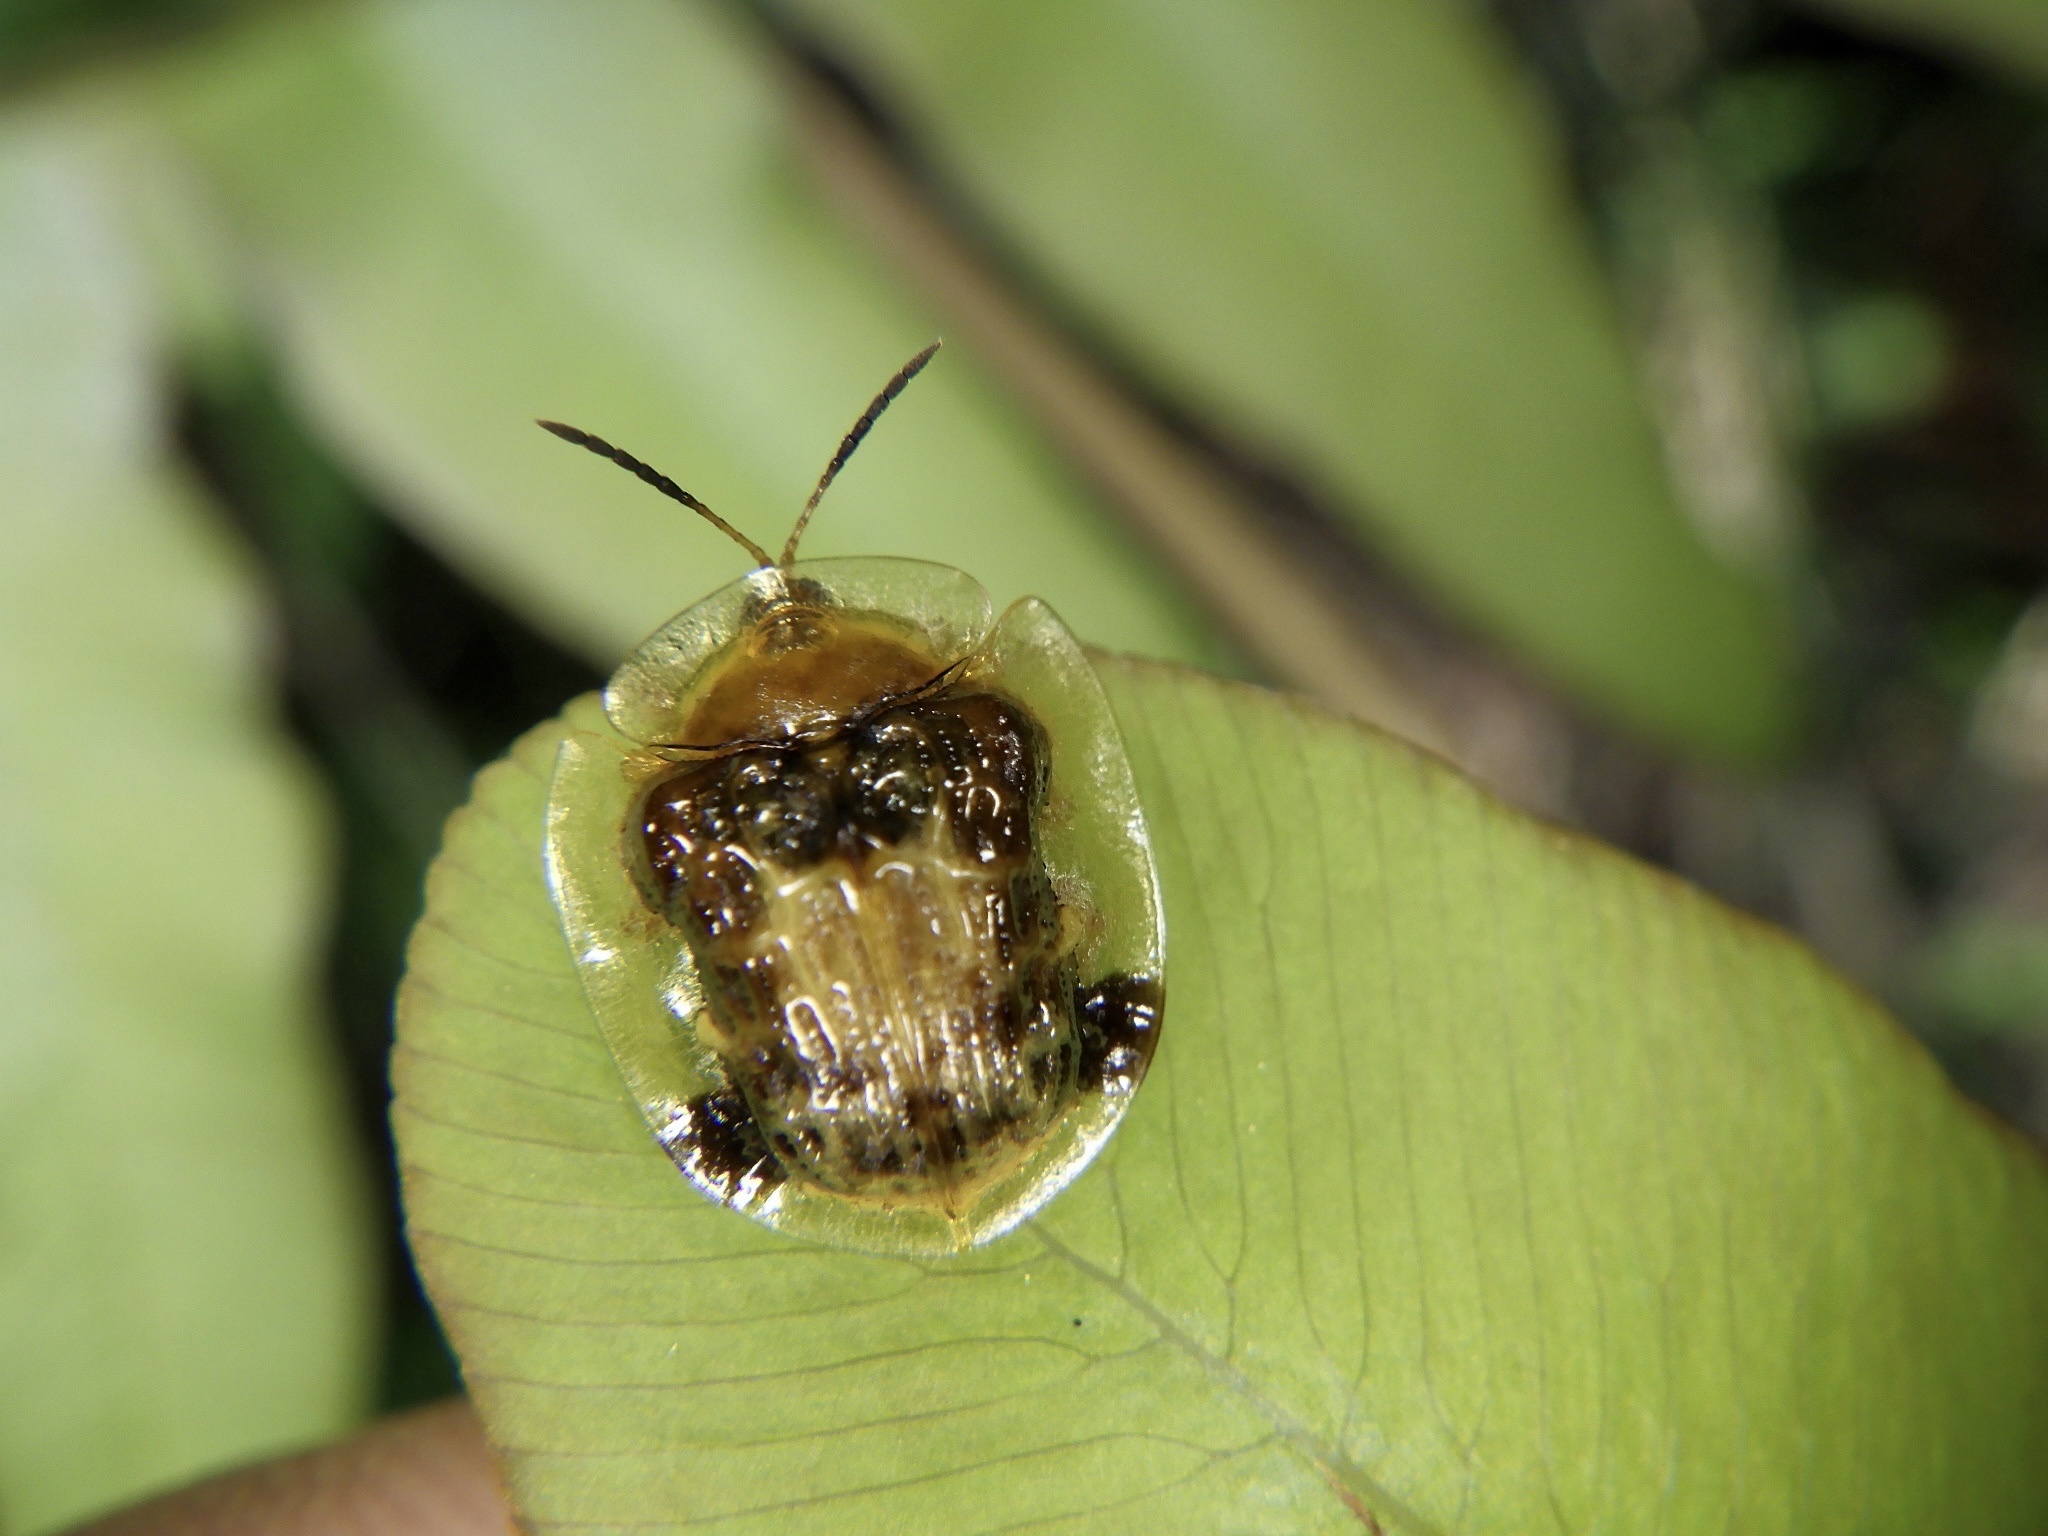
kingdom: Animalia
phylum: Arthropoda
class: Insecta
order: Coleoptera
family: Chrysomelidae
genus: Thlaspida
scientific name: Thlaspida cribrosa
